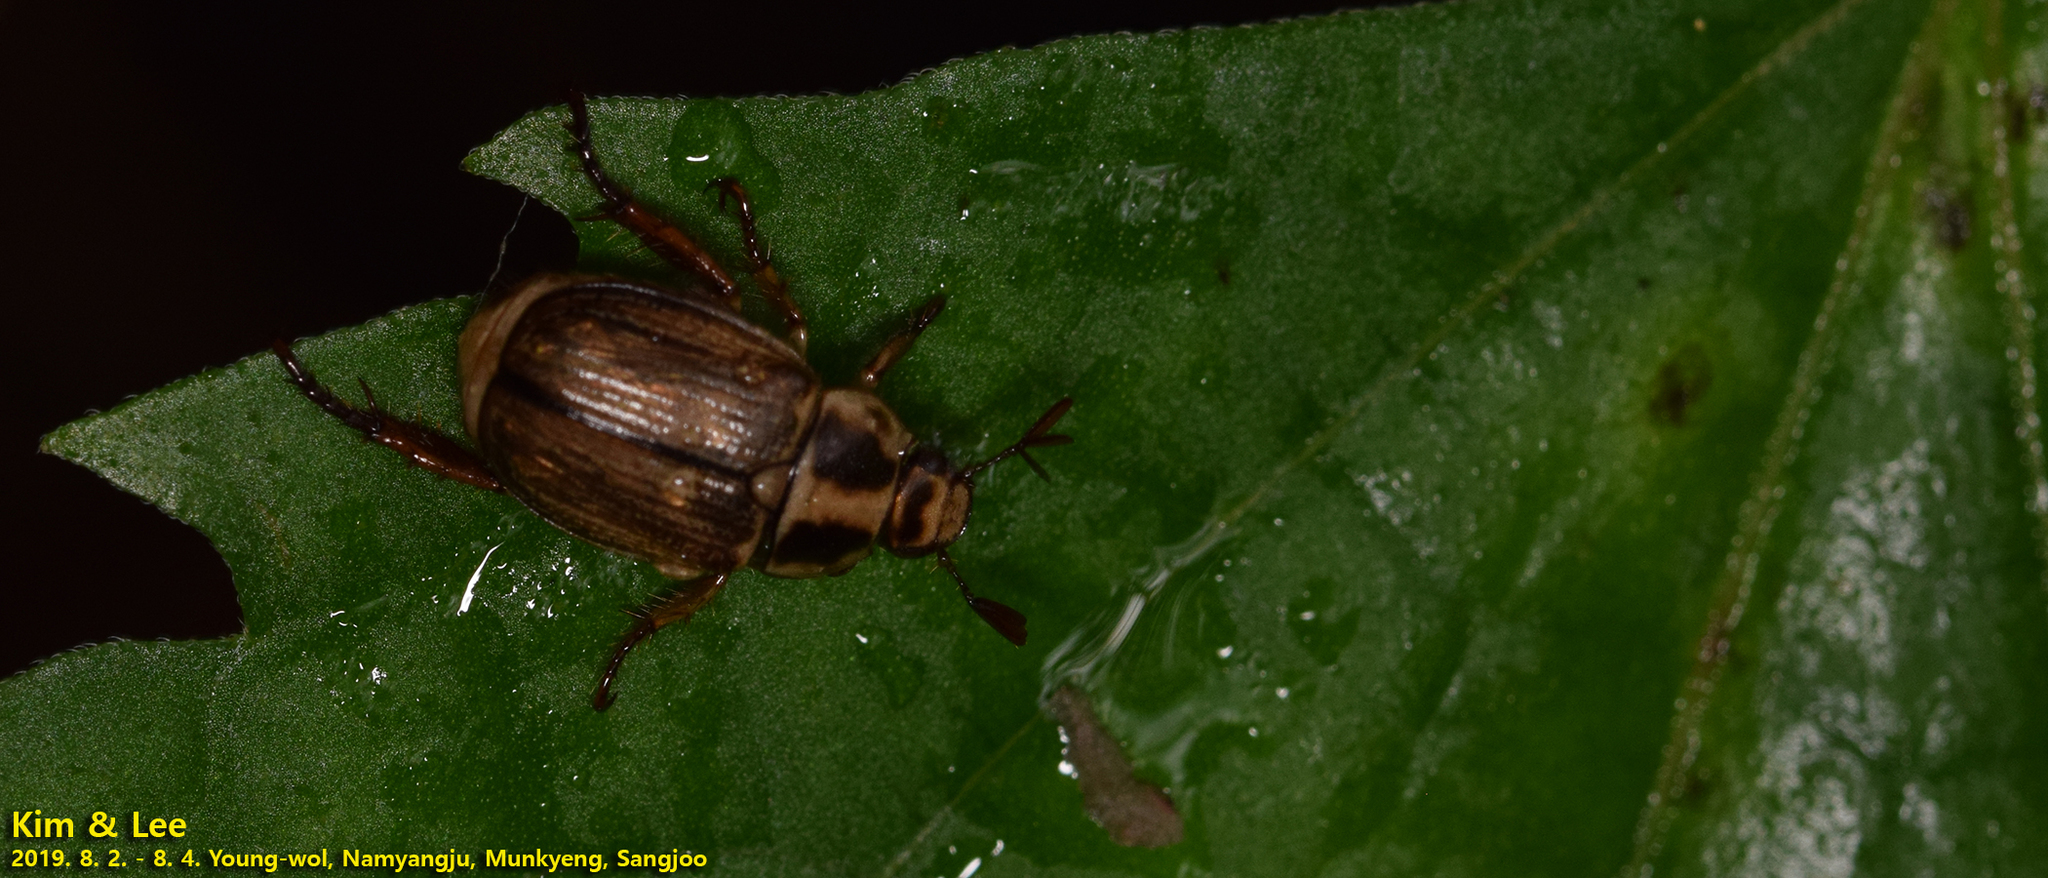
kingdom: Animalia
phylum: Arthropoda
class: Insecta
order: Coleoptera
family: Scarabaeidae
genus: Exomala
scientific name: Exomala orientalis
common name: Oriental beetle
